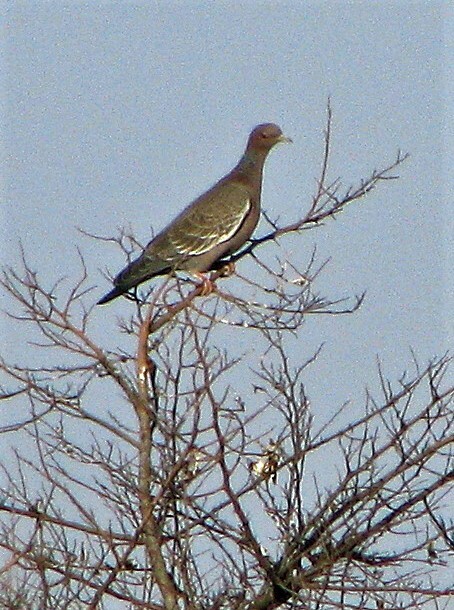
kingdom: Animalia
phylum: Chordata
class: Aves
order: Columbiformes
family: Columbidae
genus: Patagioenas
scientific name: Patagioenas picazuro
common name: Picazuro pigeon
